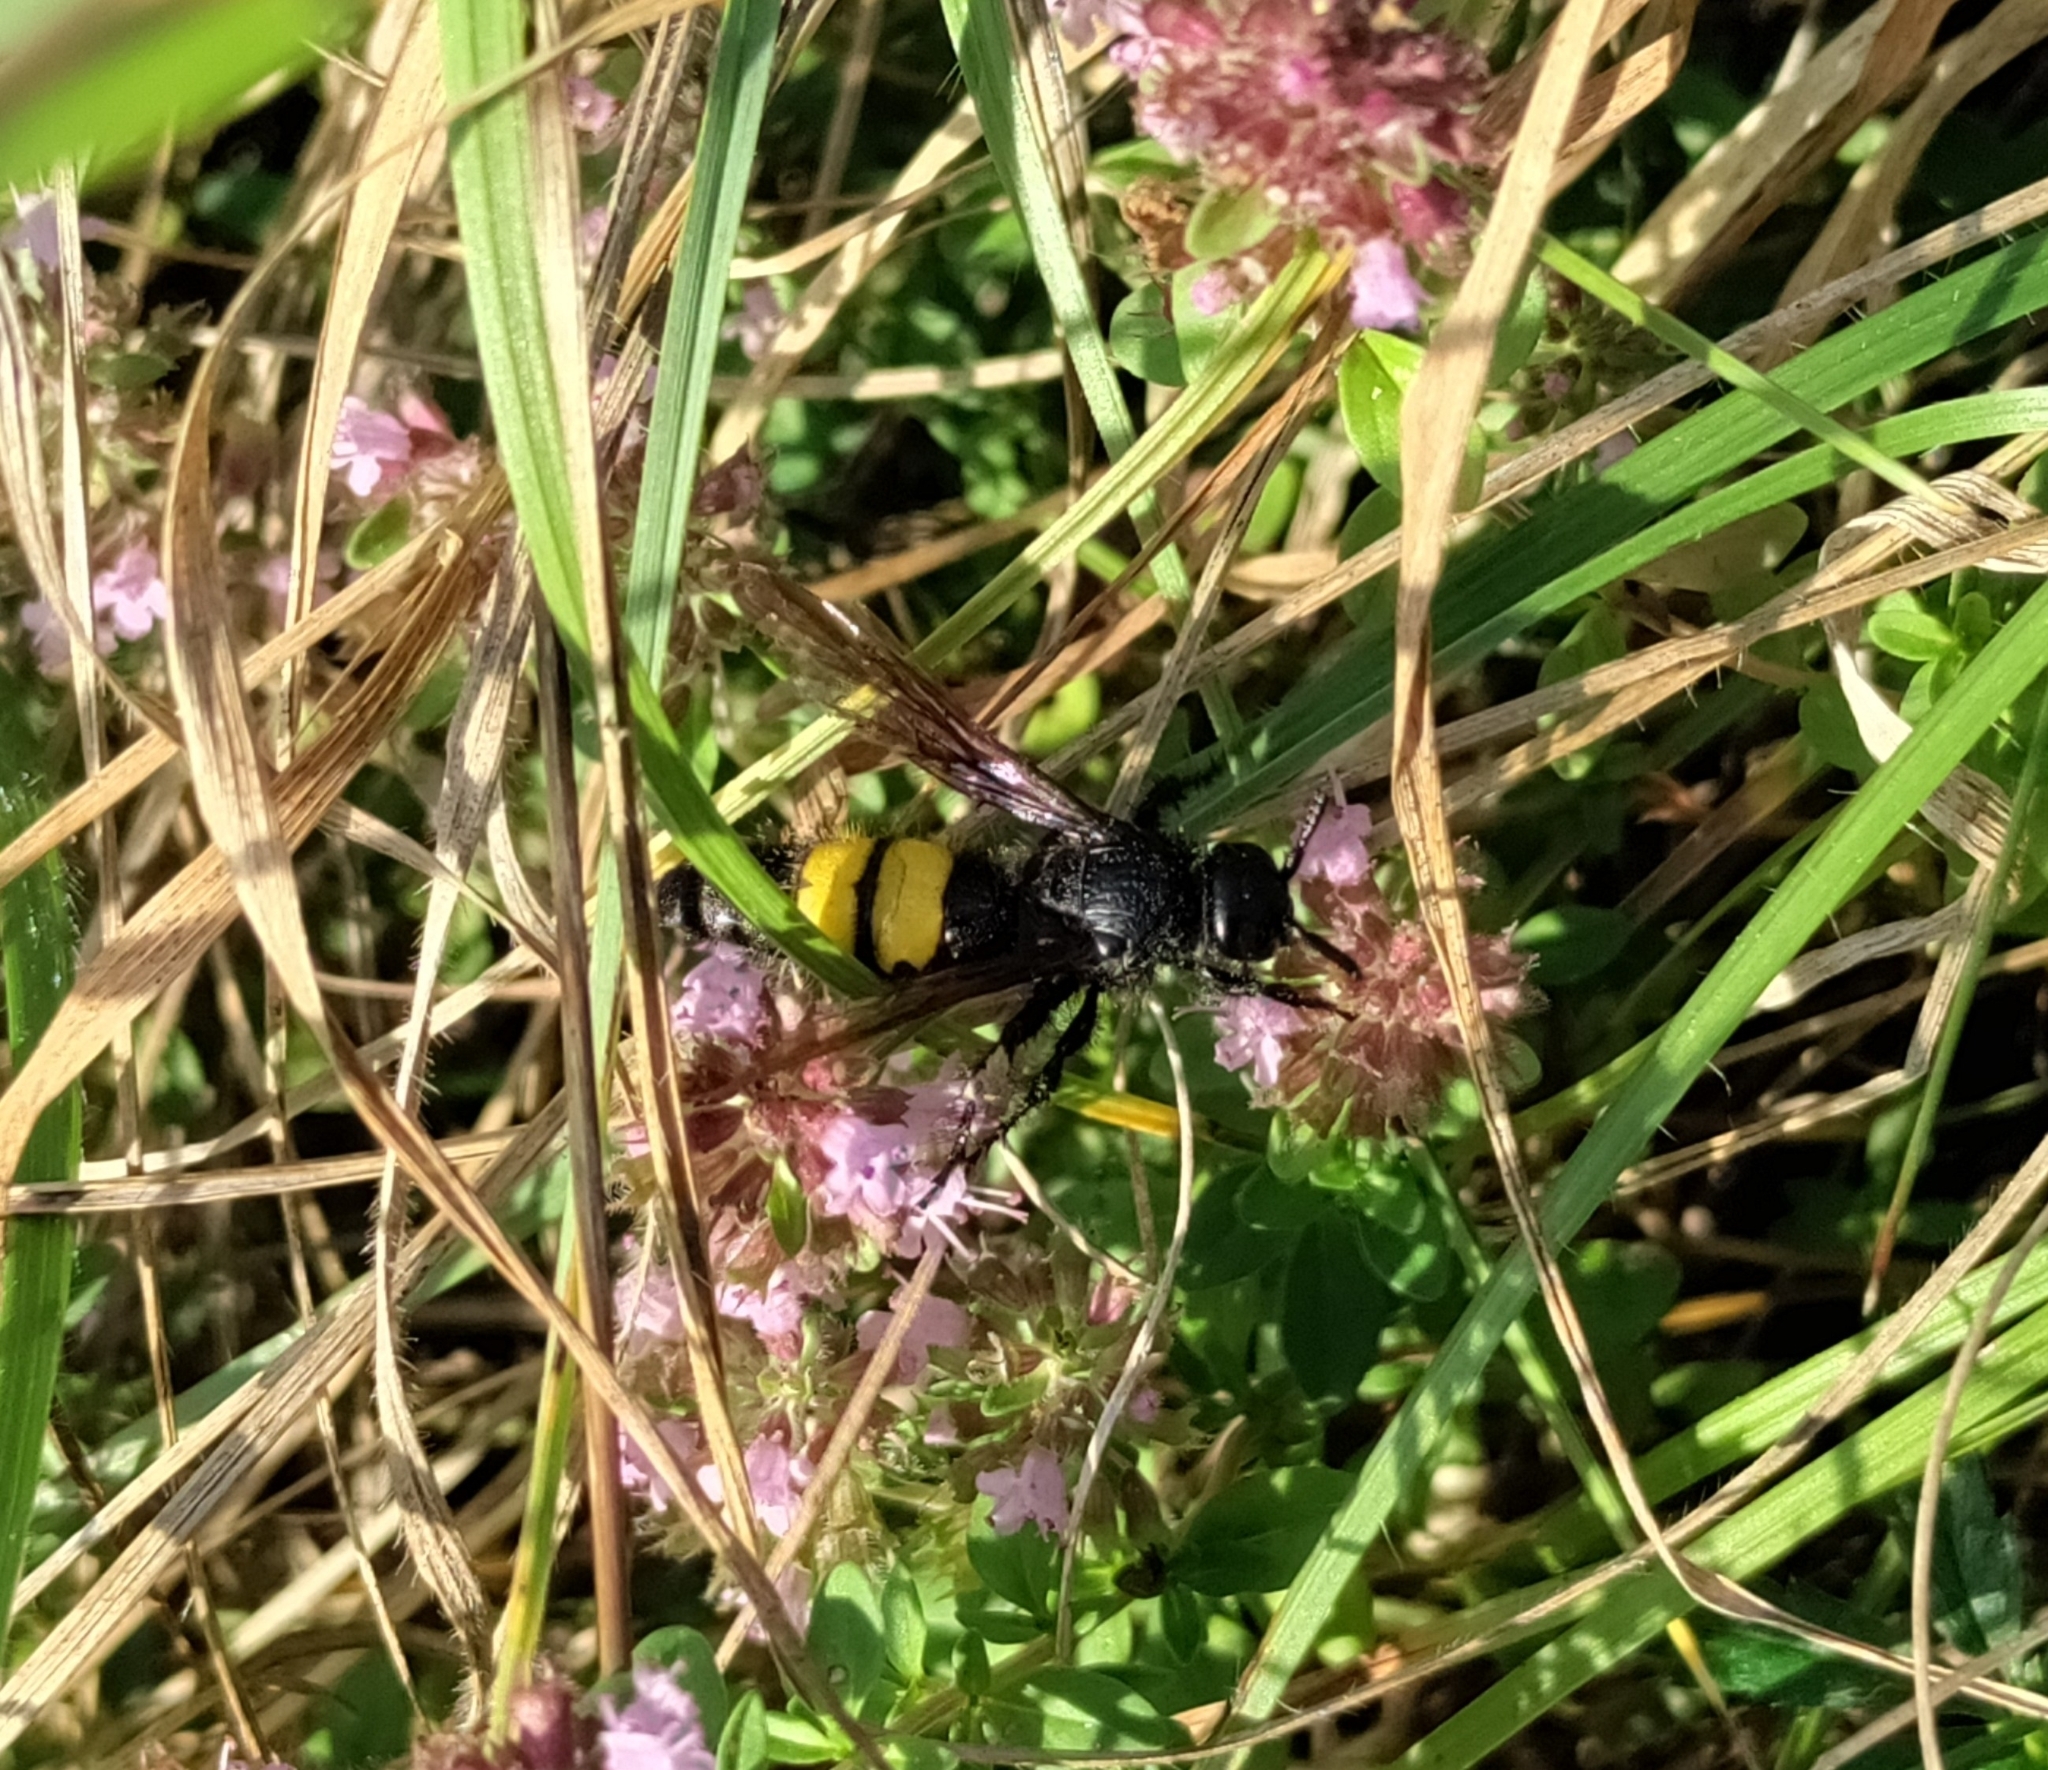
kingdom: Animalia
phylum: Arthropoda
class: Insecta
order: Hymenoptera
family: Scoliidae
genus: Scolia
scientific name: Scolia hirta
